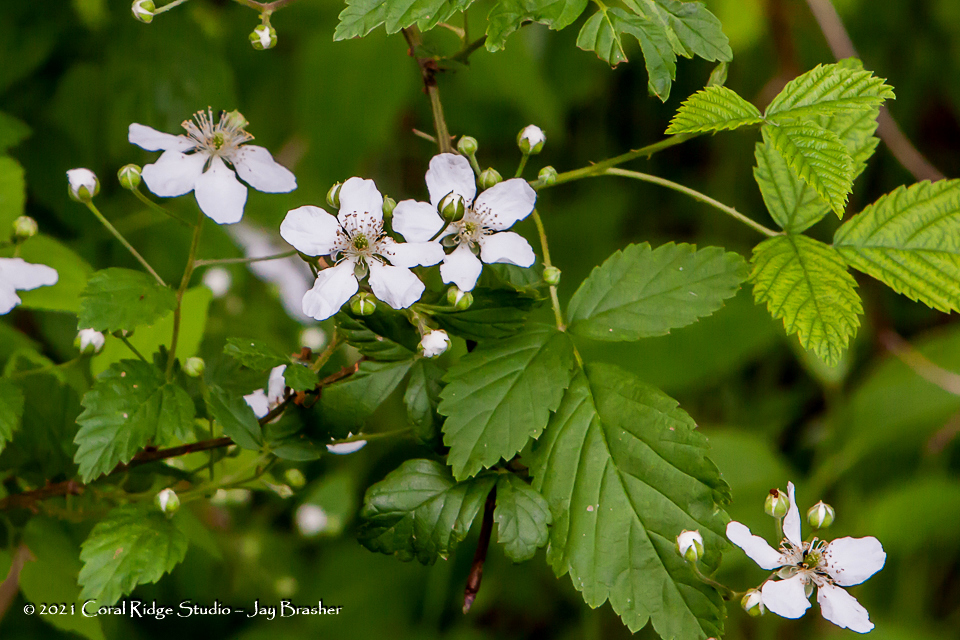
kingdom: Plantae
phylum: Tracheophyta
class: Magnoliopsida
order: Rosales
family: Rosaceae
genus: Rubus
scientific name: Rubus trivialis
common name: Southern dewberry
